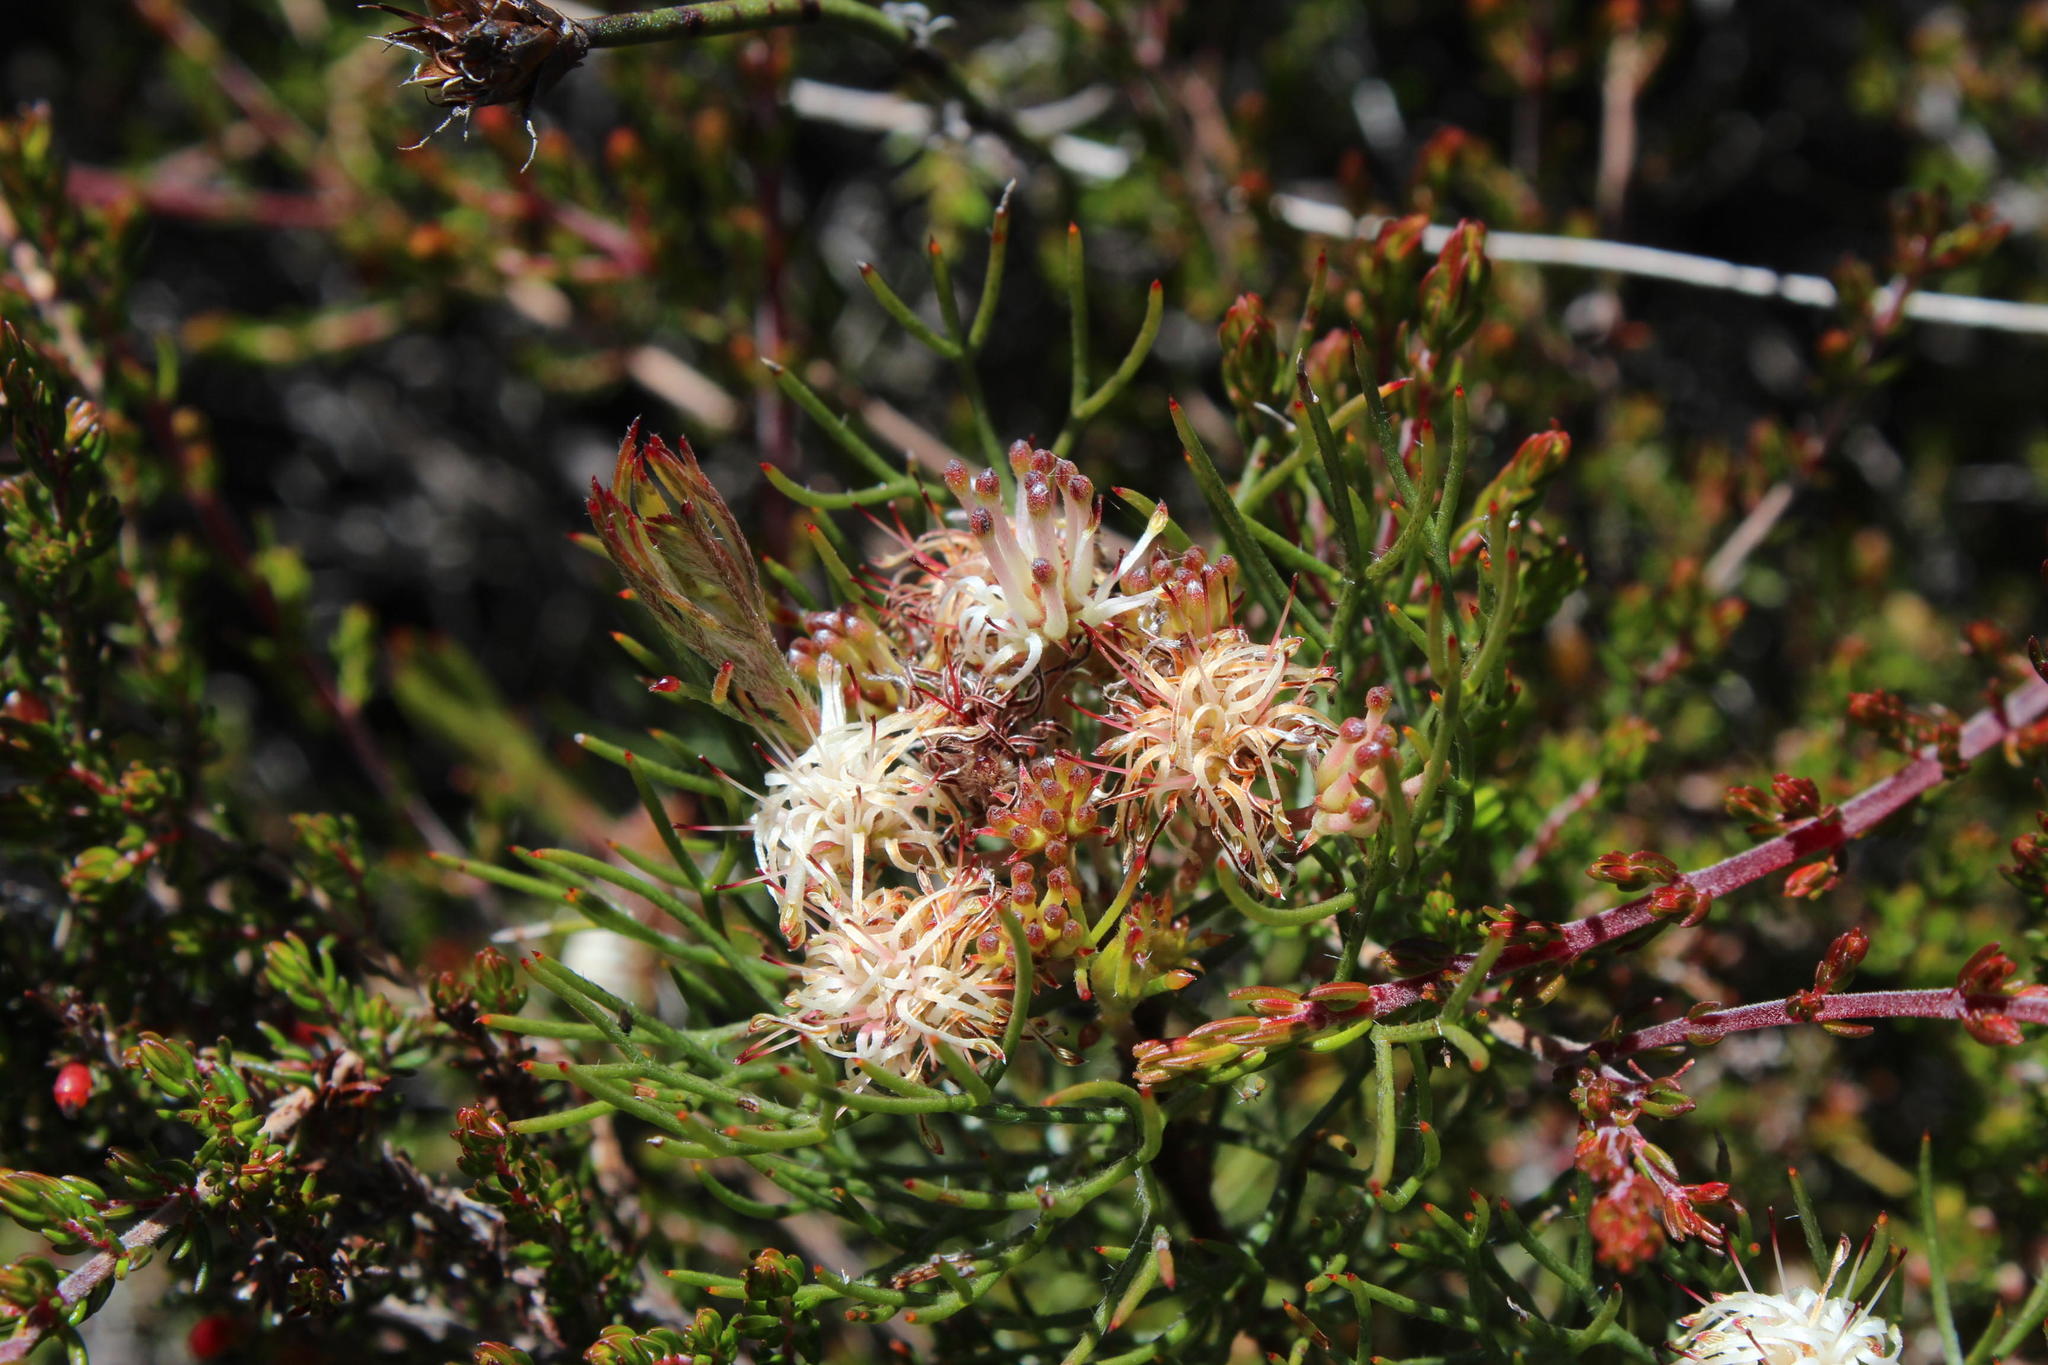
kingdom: Plantae
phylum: Tracheophyta
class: Magnoliopsida
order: Proteales
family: Proteaceae
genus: Serruria
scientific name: Serruria inconspicua
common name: Cryptic spiderhead
